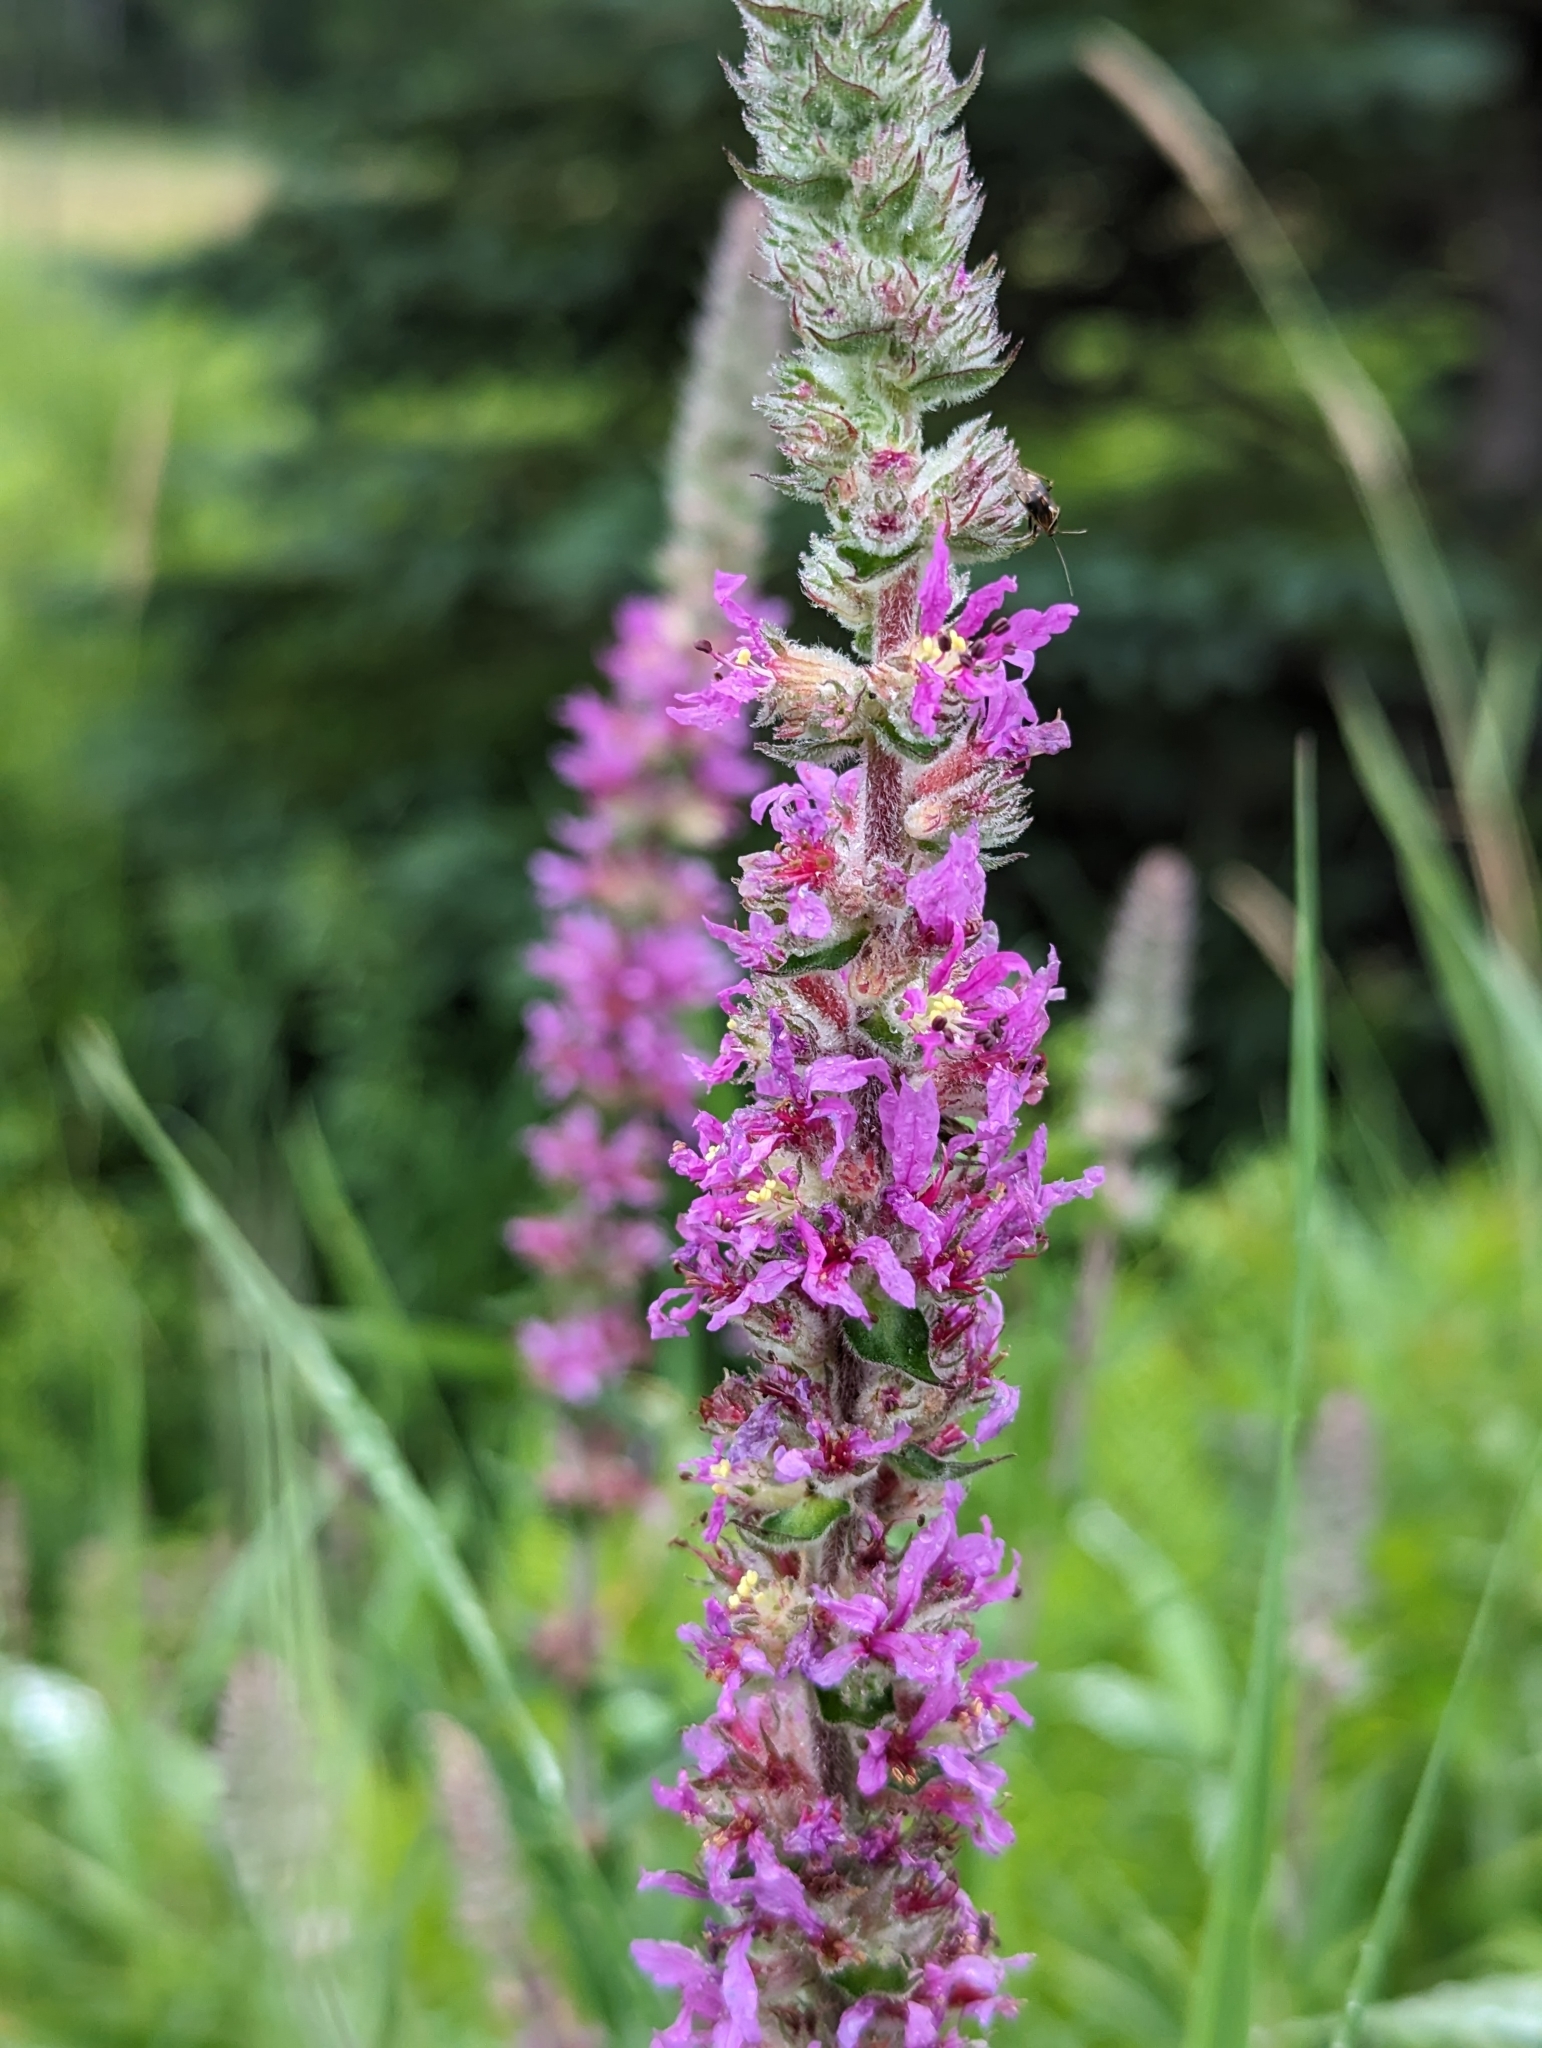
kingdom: Plantae
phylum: Tracheophyta
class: Magnoliopsida
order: Myrtales
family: Lythraceae
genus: Lythrum
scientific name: Lythrum salicaria
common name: Purple loosestrife
